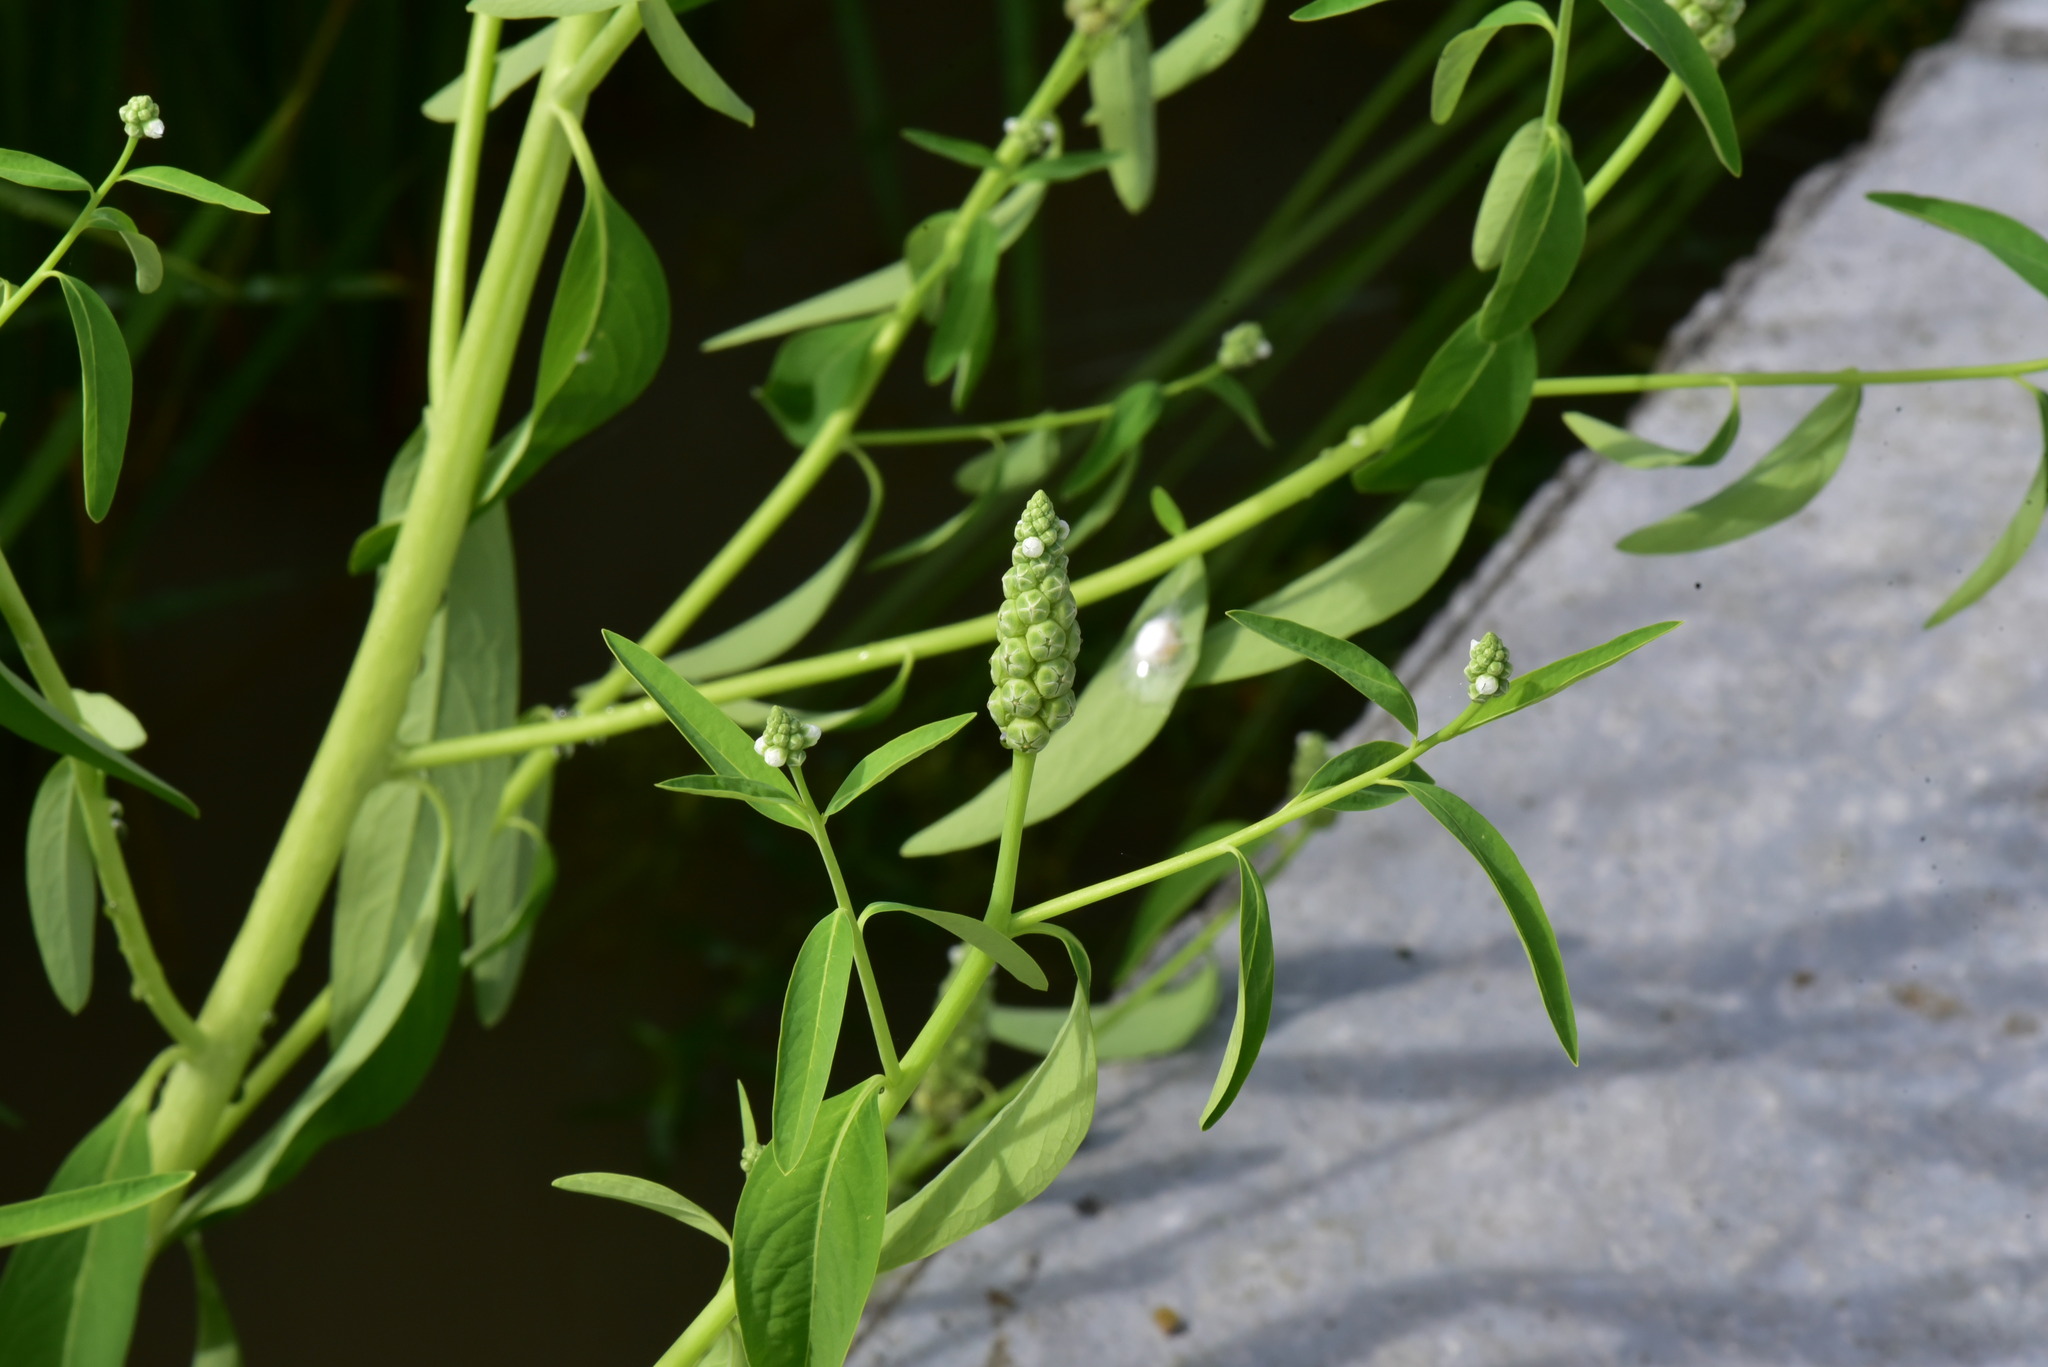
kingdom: Plantae
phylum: Tracheophyta
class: Magnoliopsida
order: Solanales
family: Sphenocleaceae
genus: Sphenoclea
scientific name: Sphenoclea zeylanica
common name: Chickenspike
